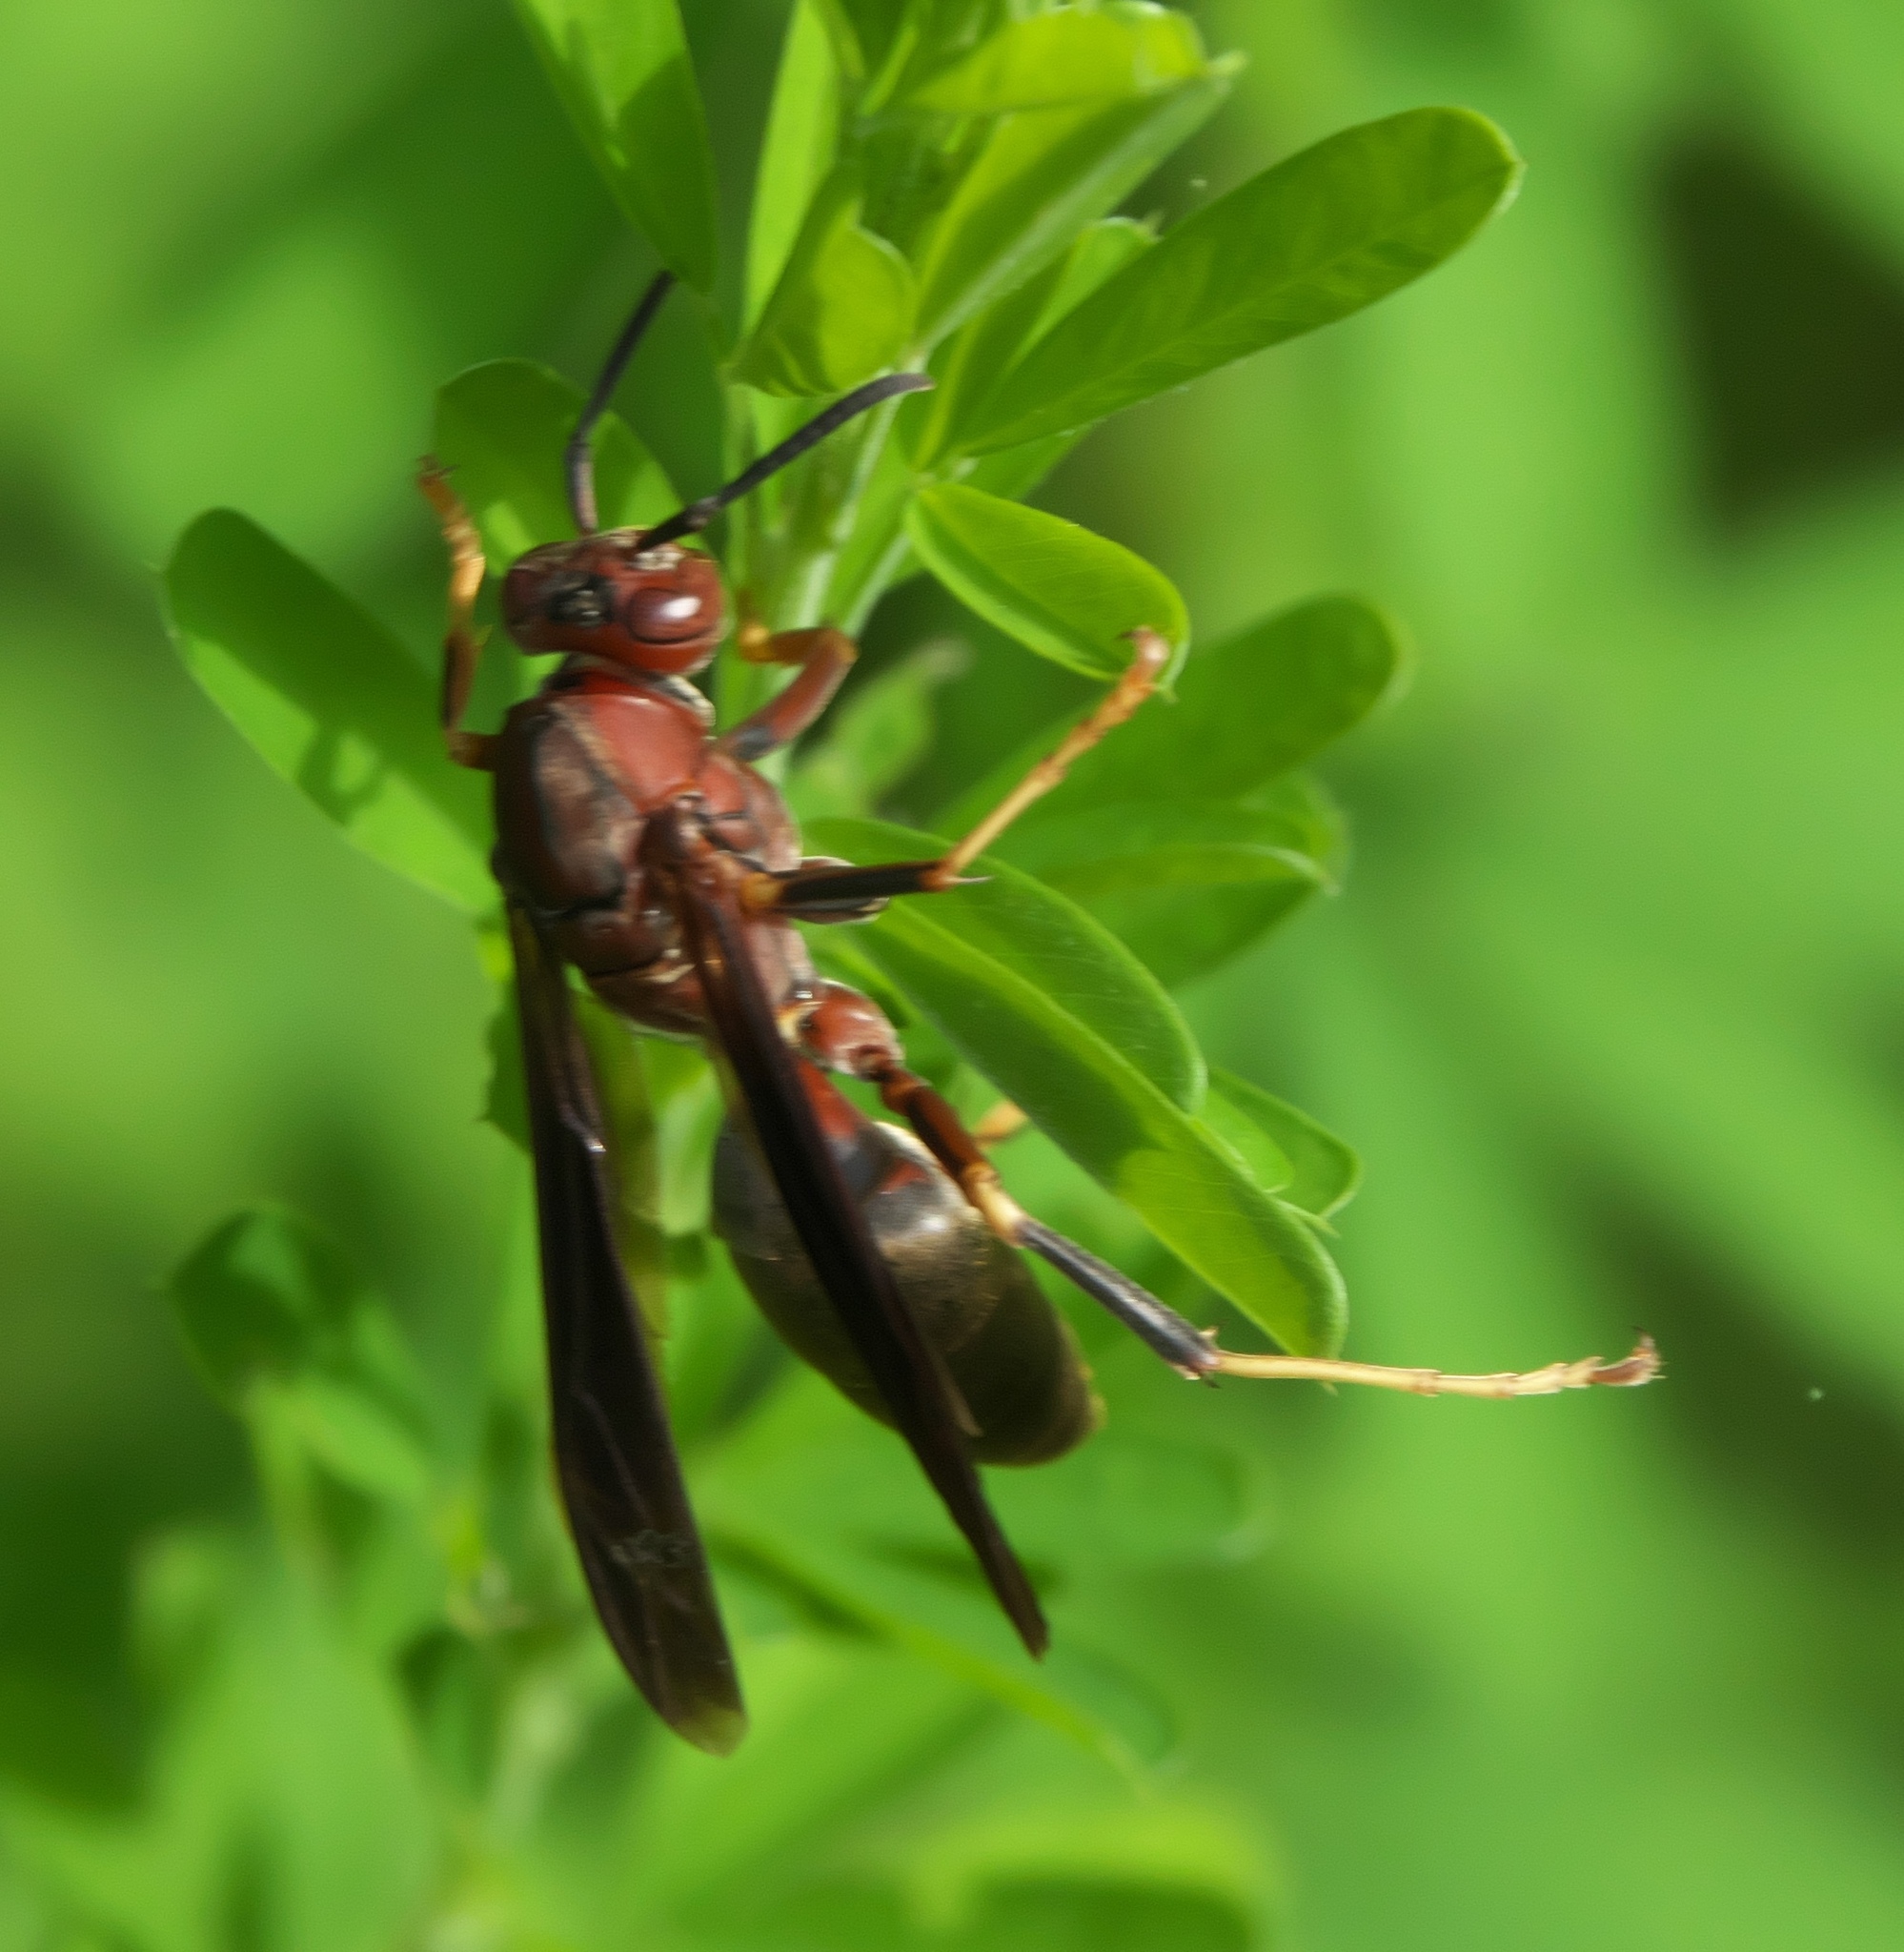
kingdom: Animalia
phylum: Arthropoda
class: Insecta
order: Hymenoptera
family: Eumenidae
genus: Polistes
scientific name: Polistes metricus
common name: Metric paper wasp
